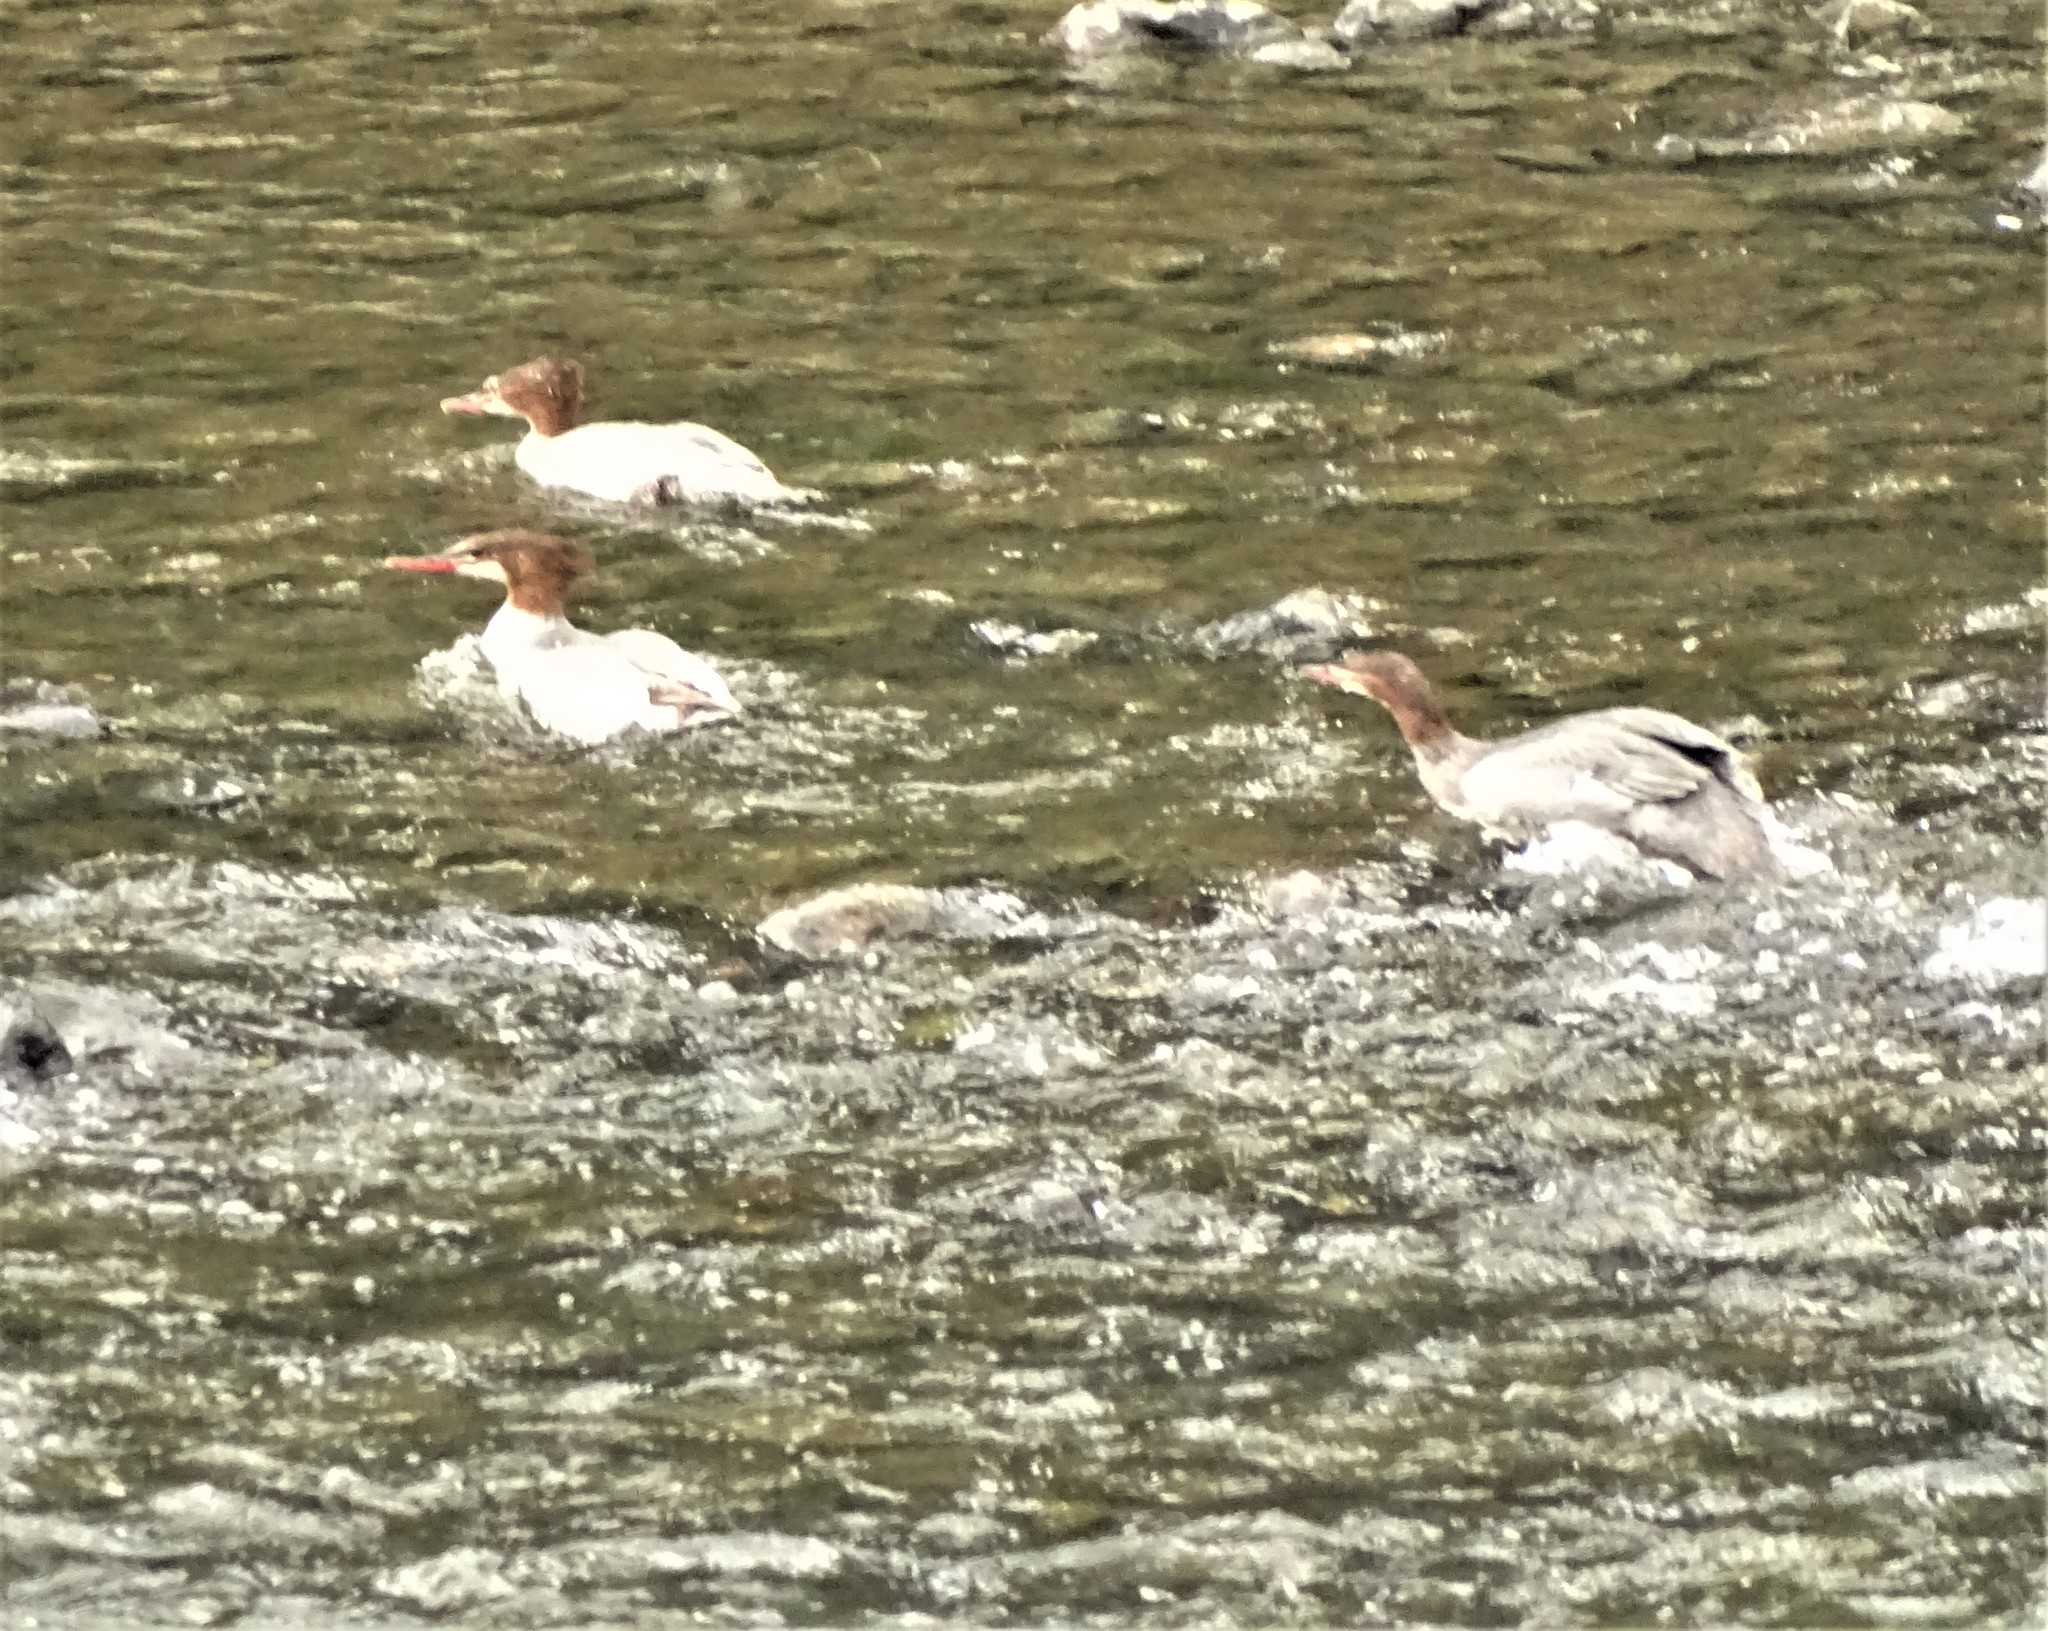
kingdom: Animalia
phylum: Chordata
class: Aves
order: Anseriformes
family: Anatidae
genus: Mergus
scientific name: Mergus merganser
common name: Common merganser
